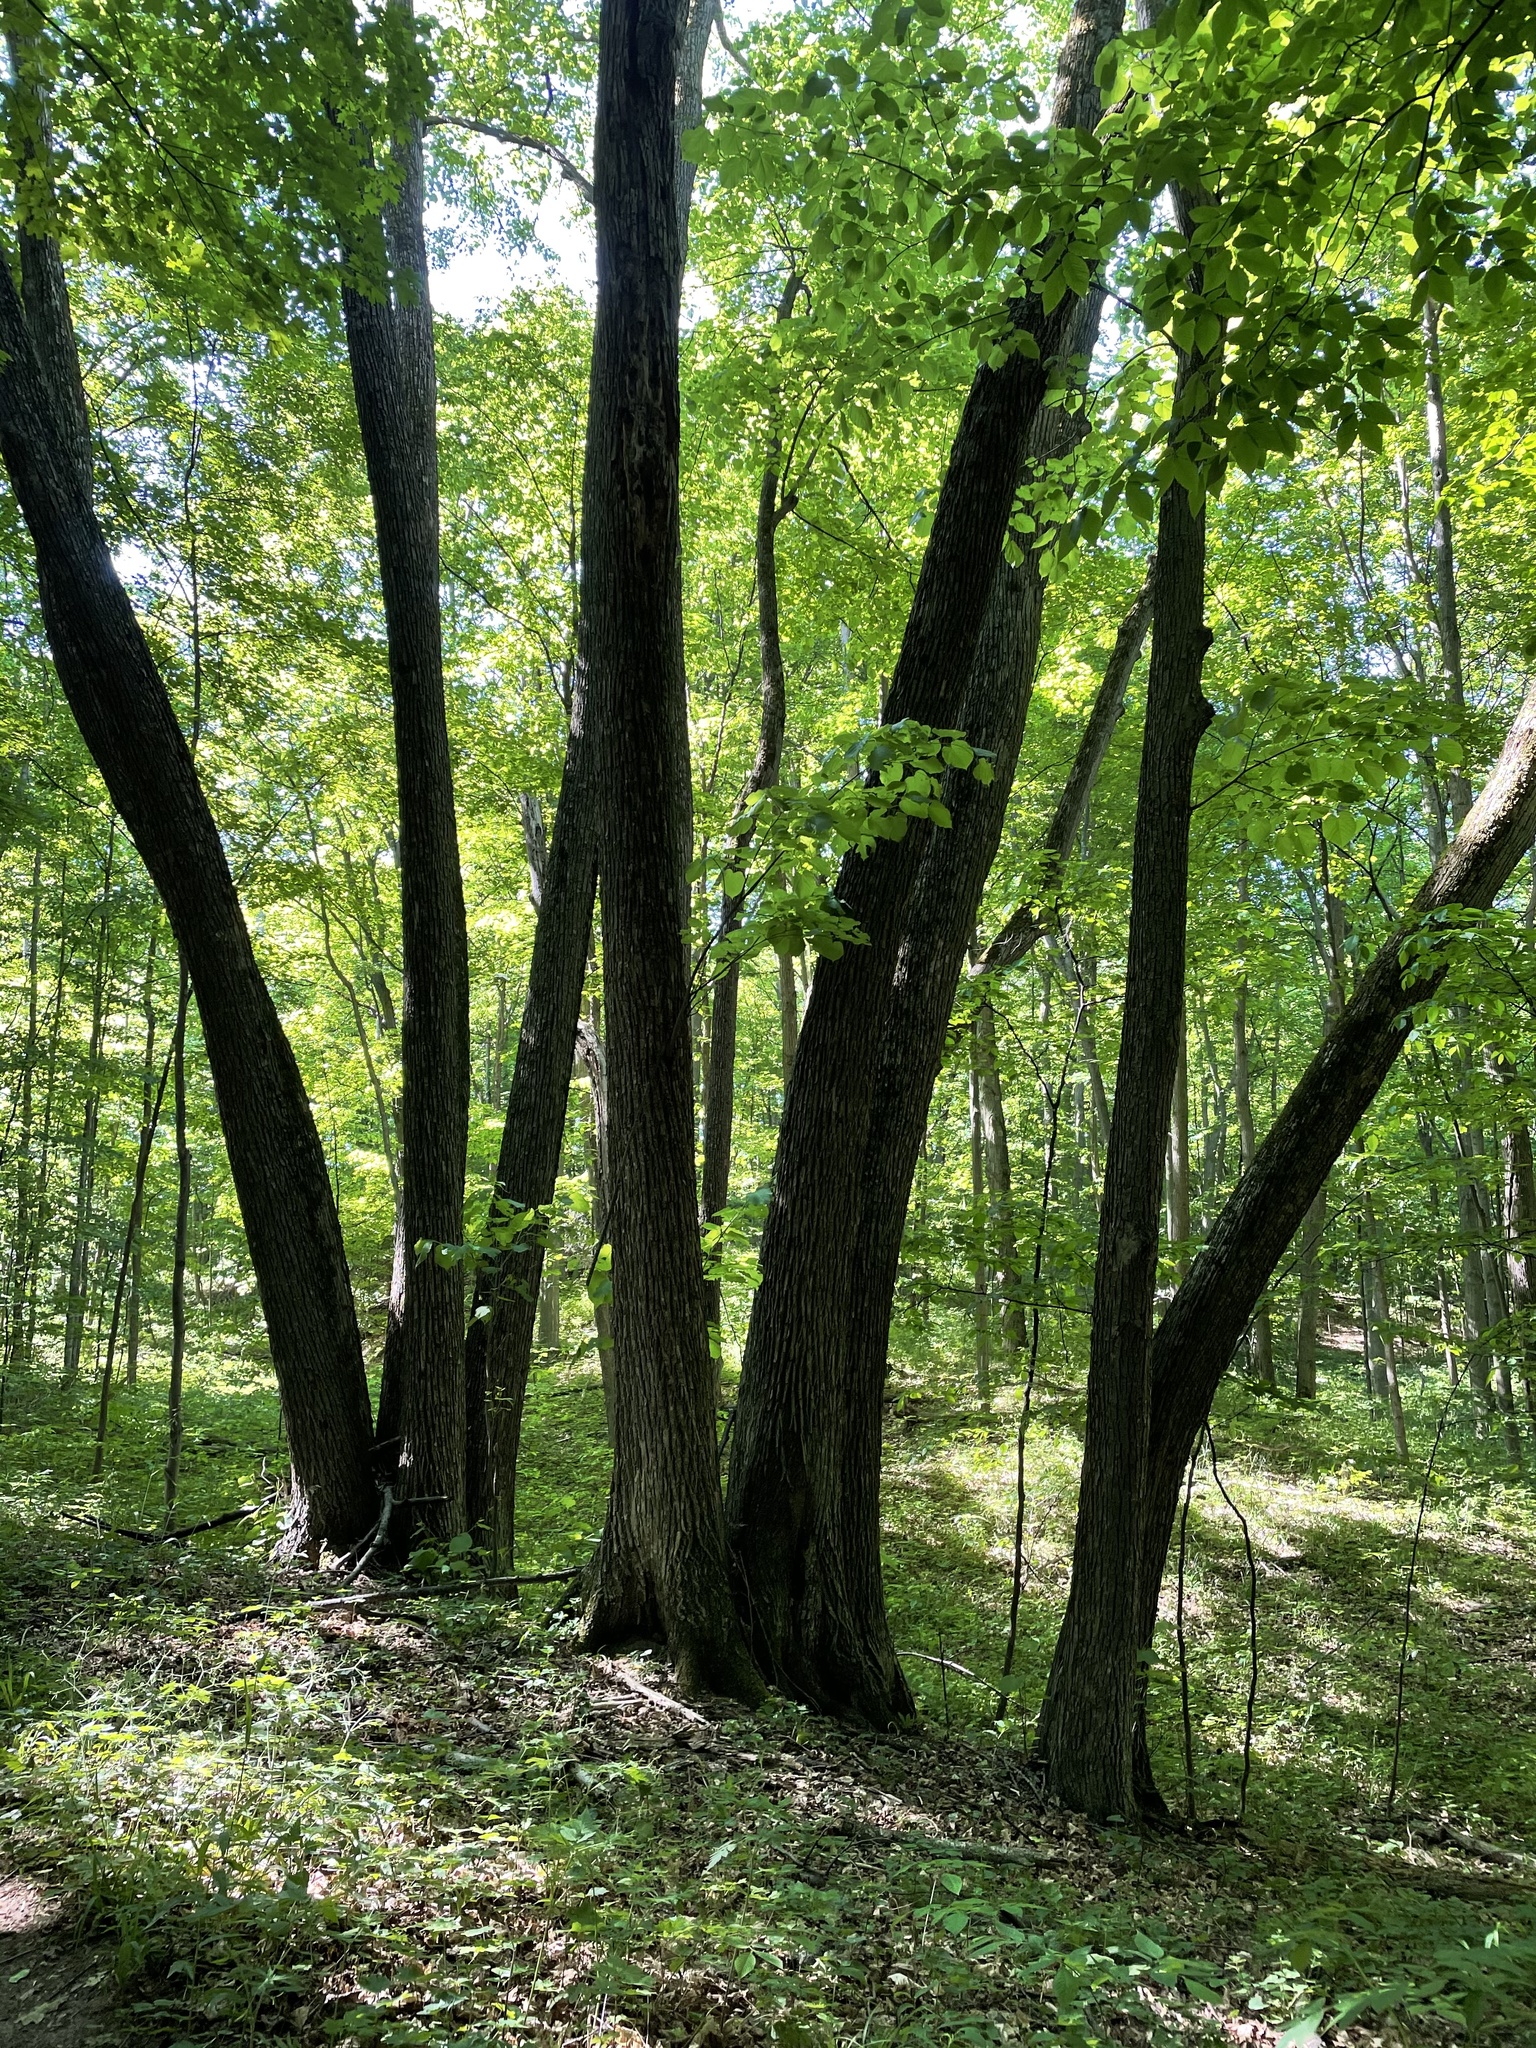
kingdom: Plantae
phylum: Tracheophyta
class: Magnoliopsida
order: Malvales
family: Malvaceae
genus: Tilia
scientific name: Tilia americana
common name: Basswood
